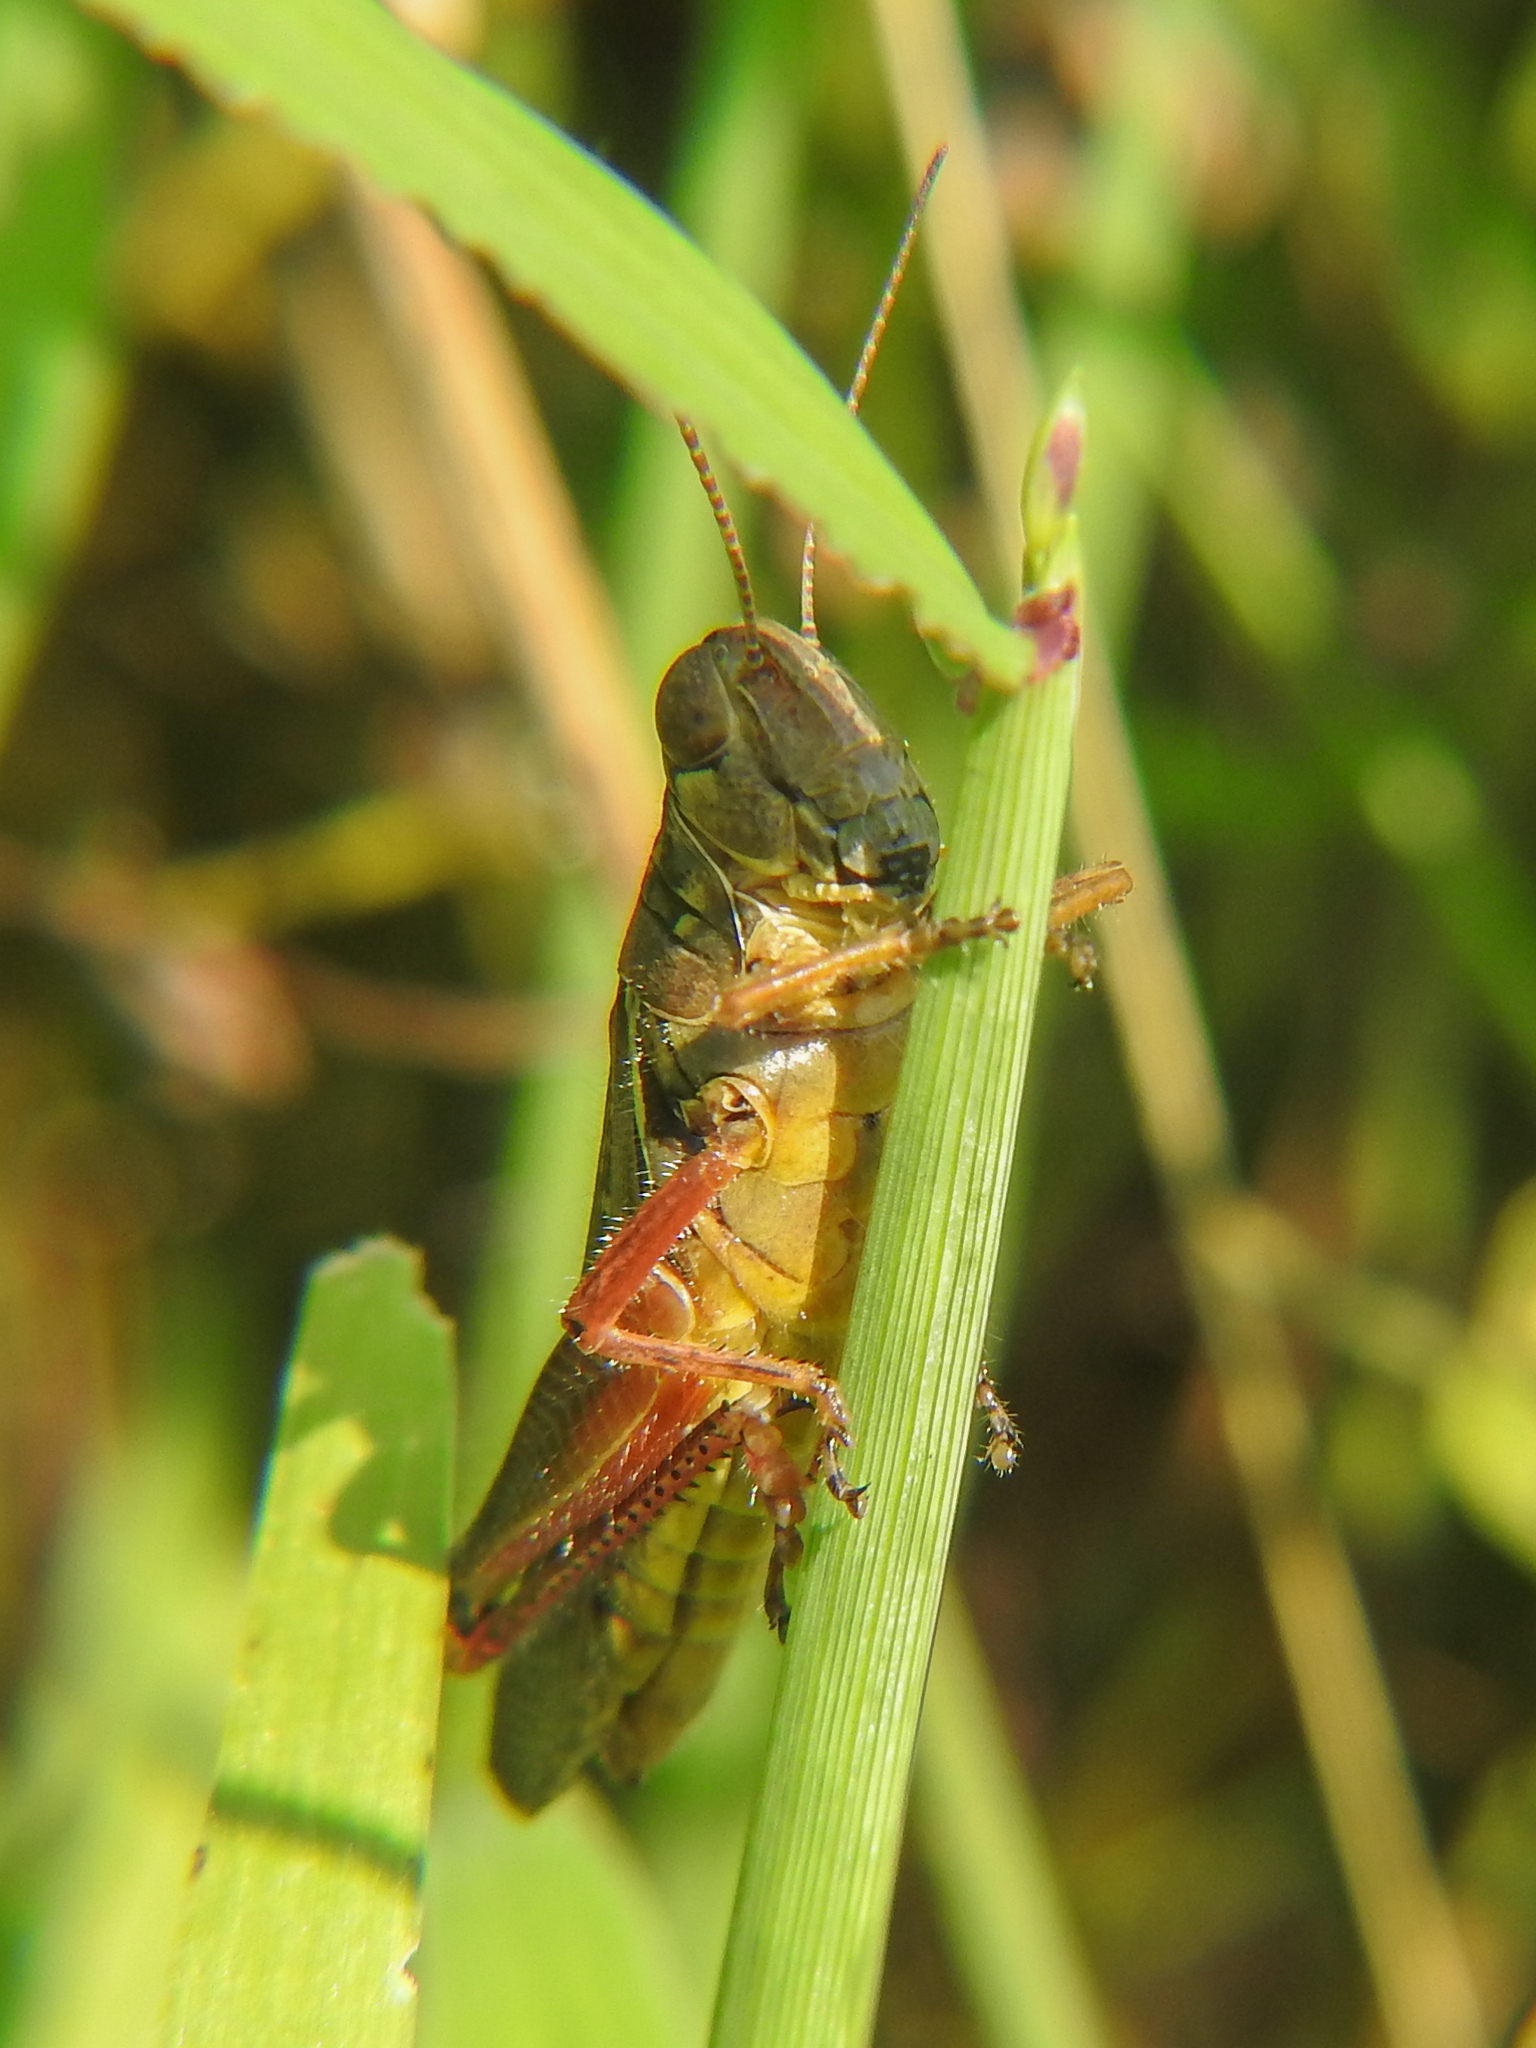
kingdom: Animalia
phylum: Arthropoda
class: Insecta
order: Orthoptera
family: Acrididae
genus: Melanoplus
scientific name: Melanoplus femurrubrum
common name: Red-legged grasshopper
